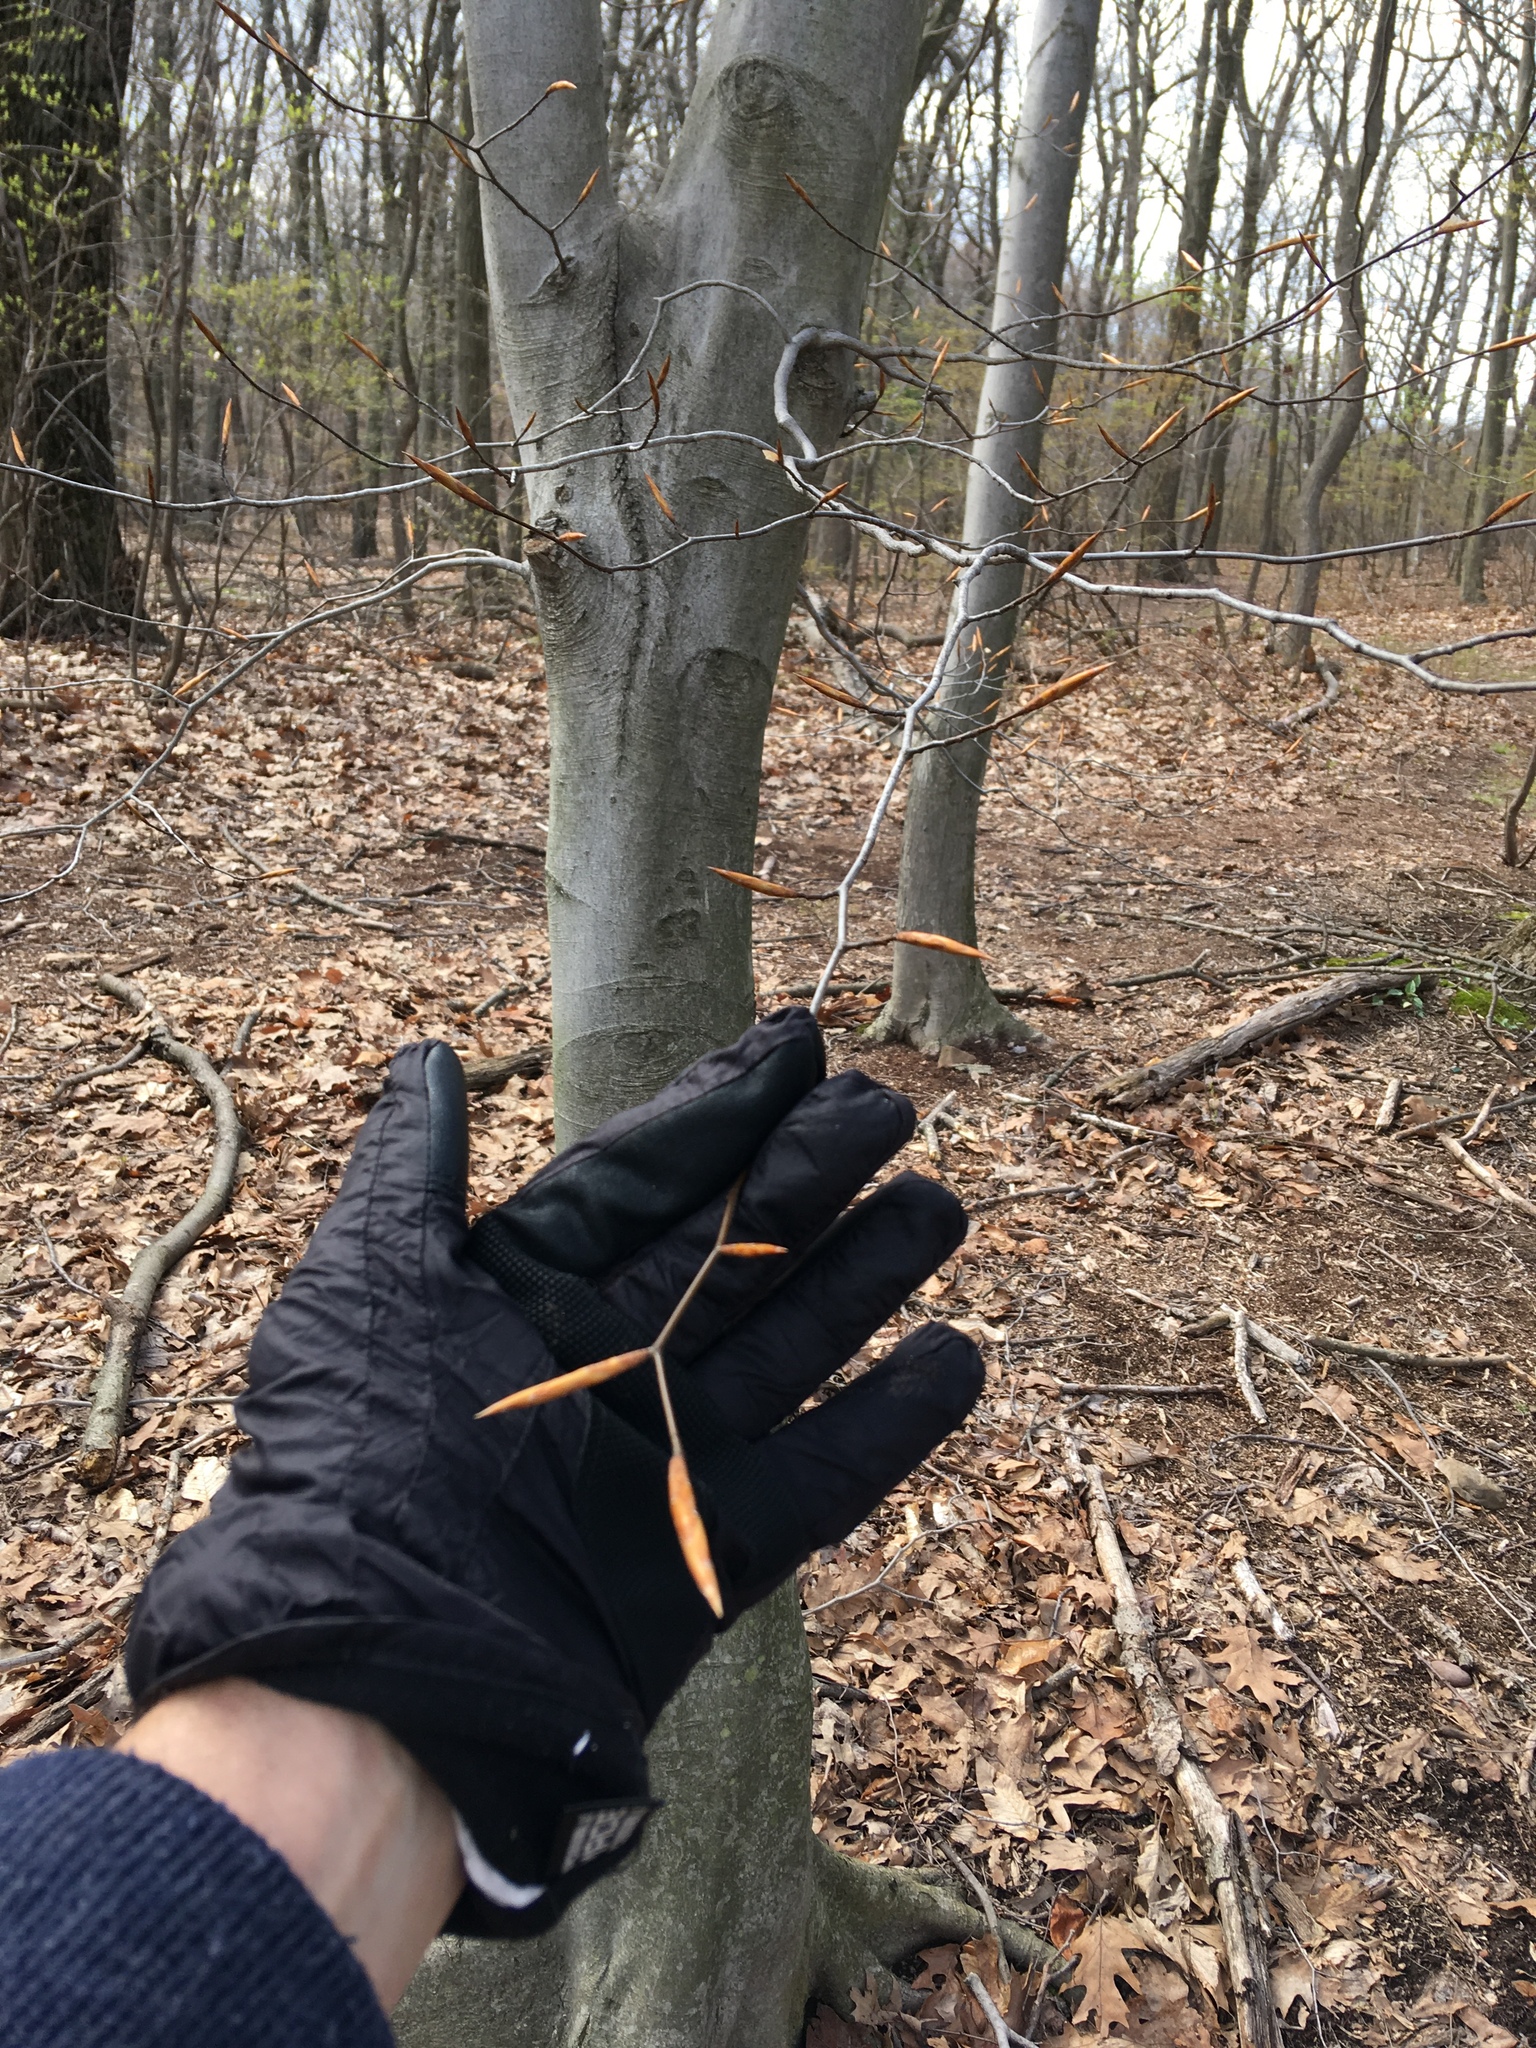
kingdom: Plantae
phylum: Tracheophyta
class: Magnoliopsida
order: Fagales
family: Fagaceae
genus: Fagus
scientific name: Fagus grandifolia
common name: American beech
